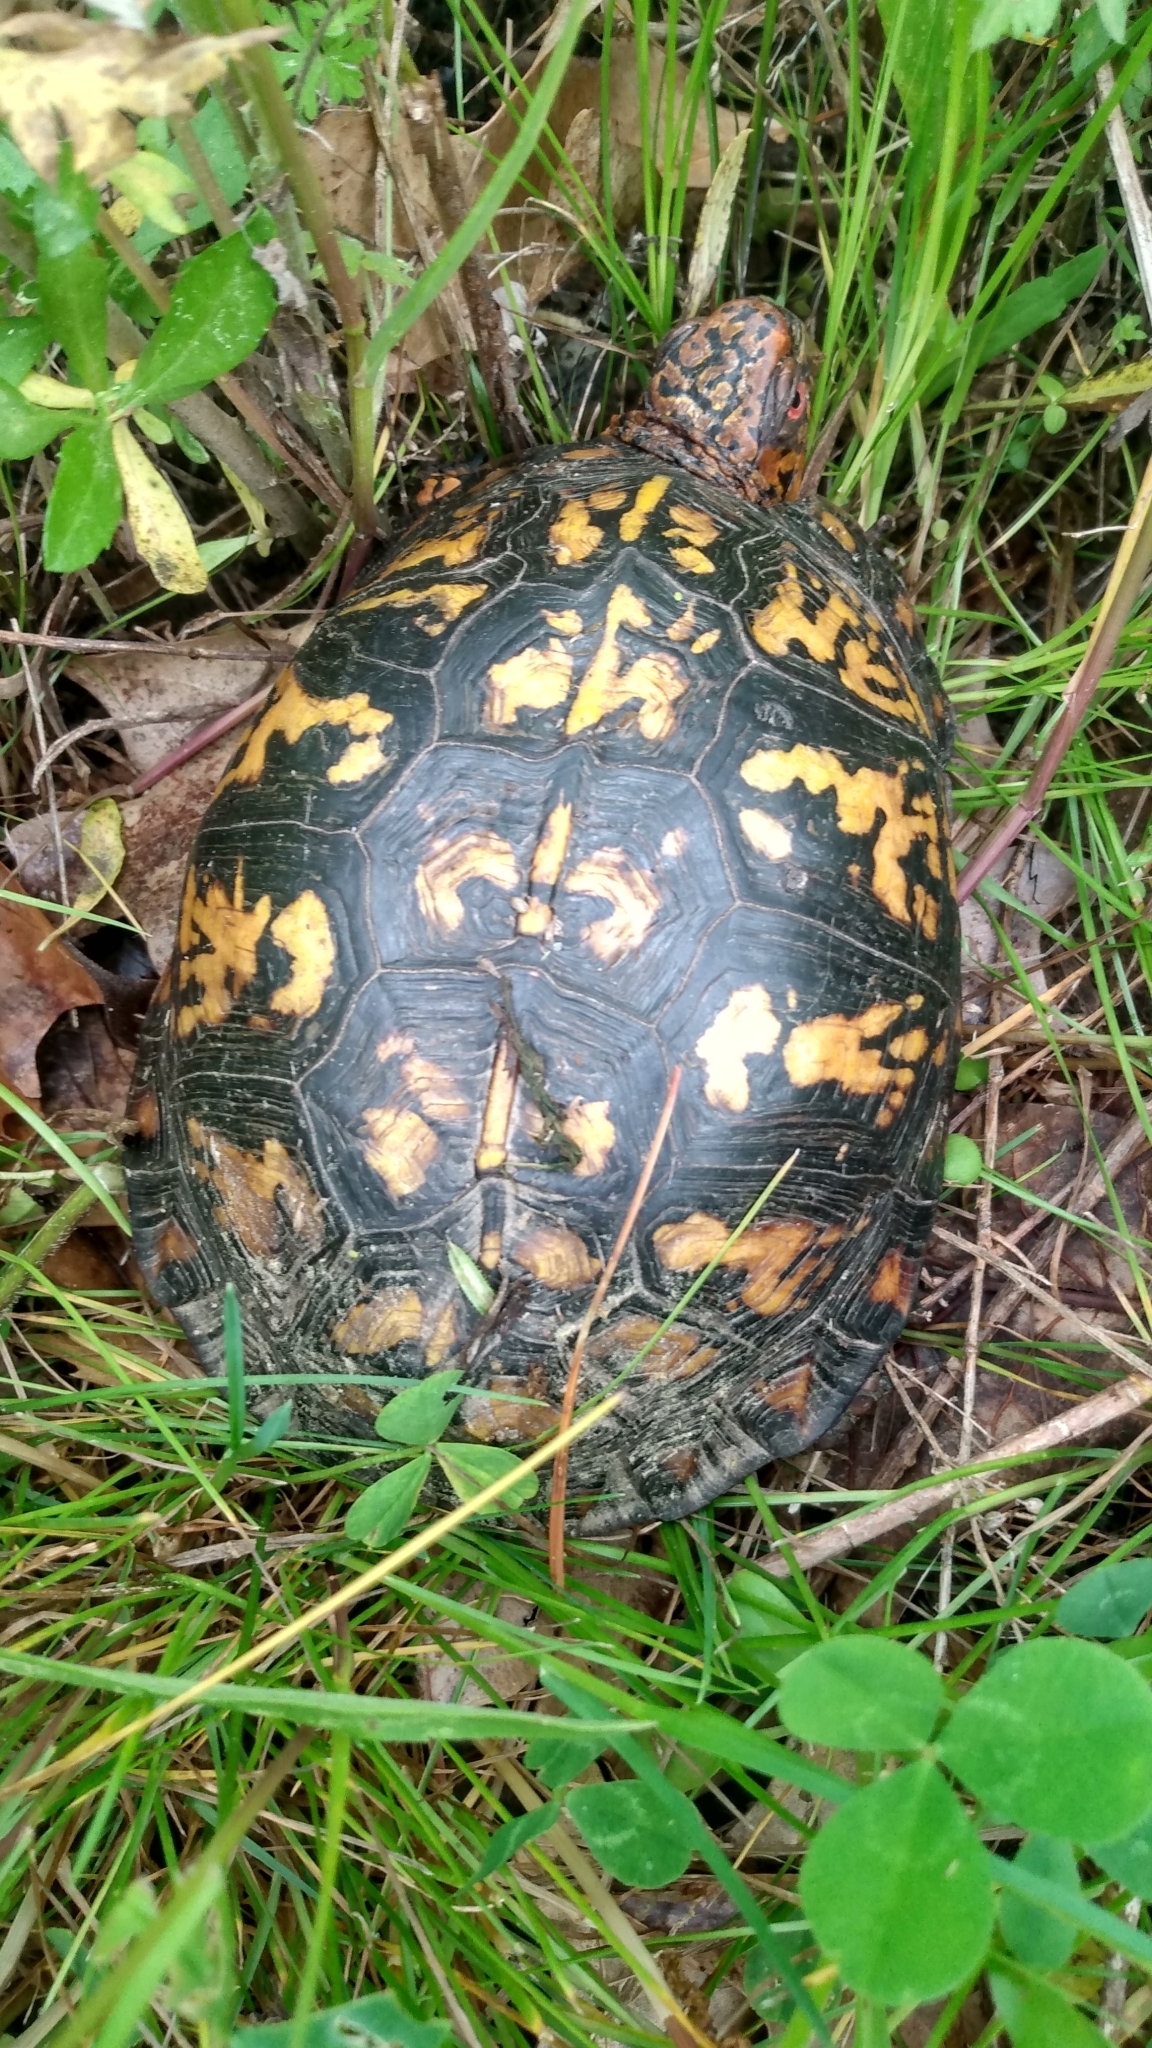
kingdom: Animalia
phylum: Chordata
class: Testudines
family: Emydidae
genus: Terrapene
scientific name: Terrapene carolina
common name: Common box turtle
